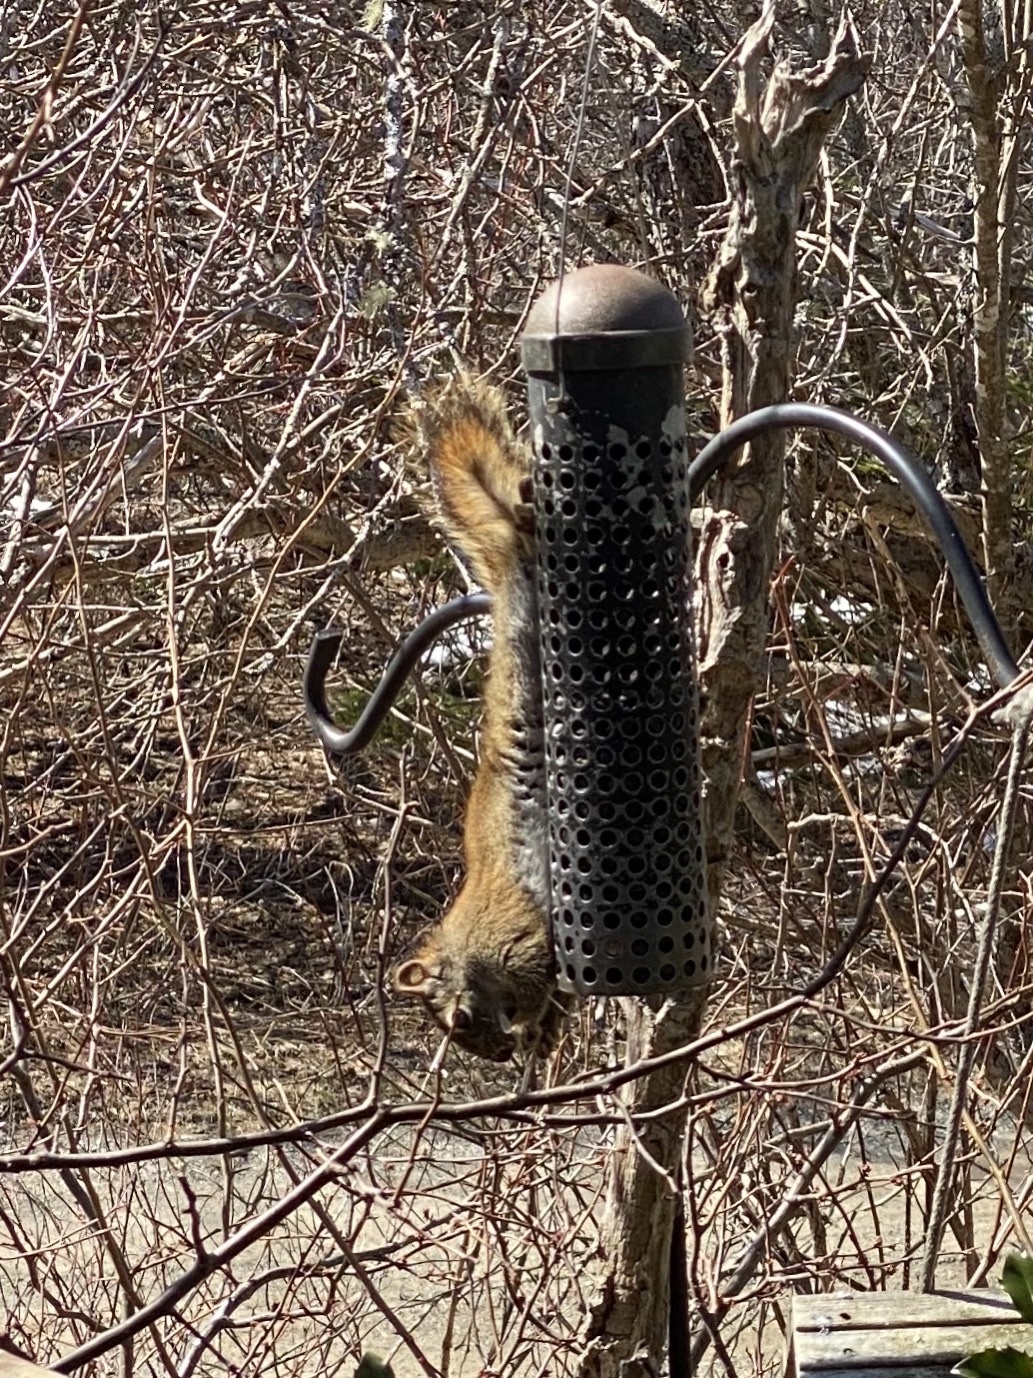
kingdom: Animalia
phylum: Chordata
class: Mammalia
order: Rodentia
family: Sciuridae
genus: Tamiasciurus
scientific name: Tamiasciurus hudsonicus
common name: Red squirrel
